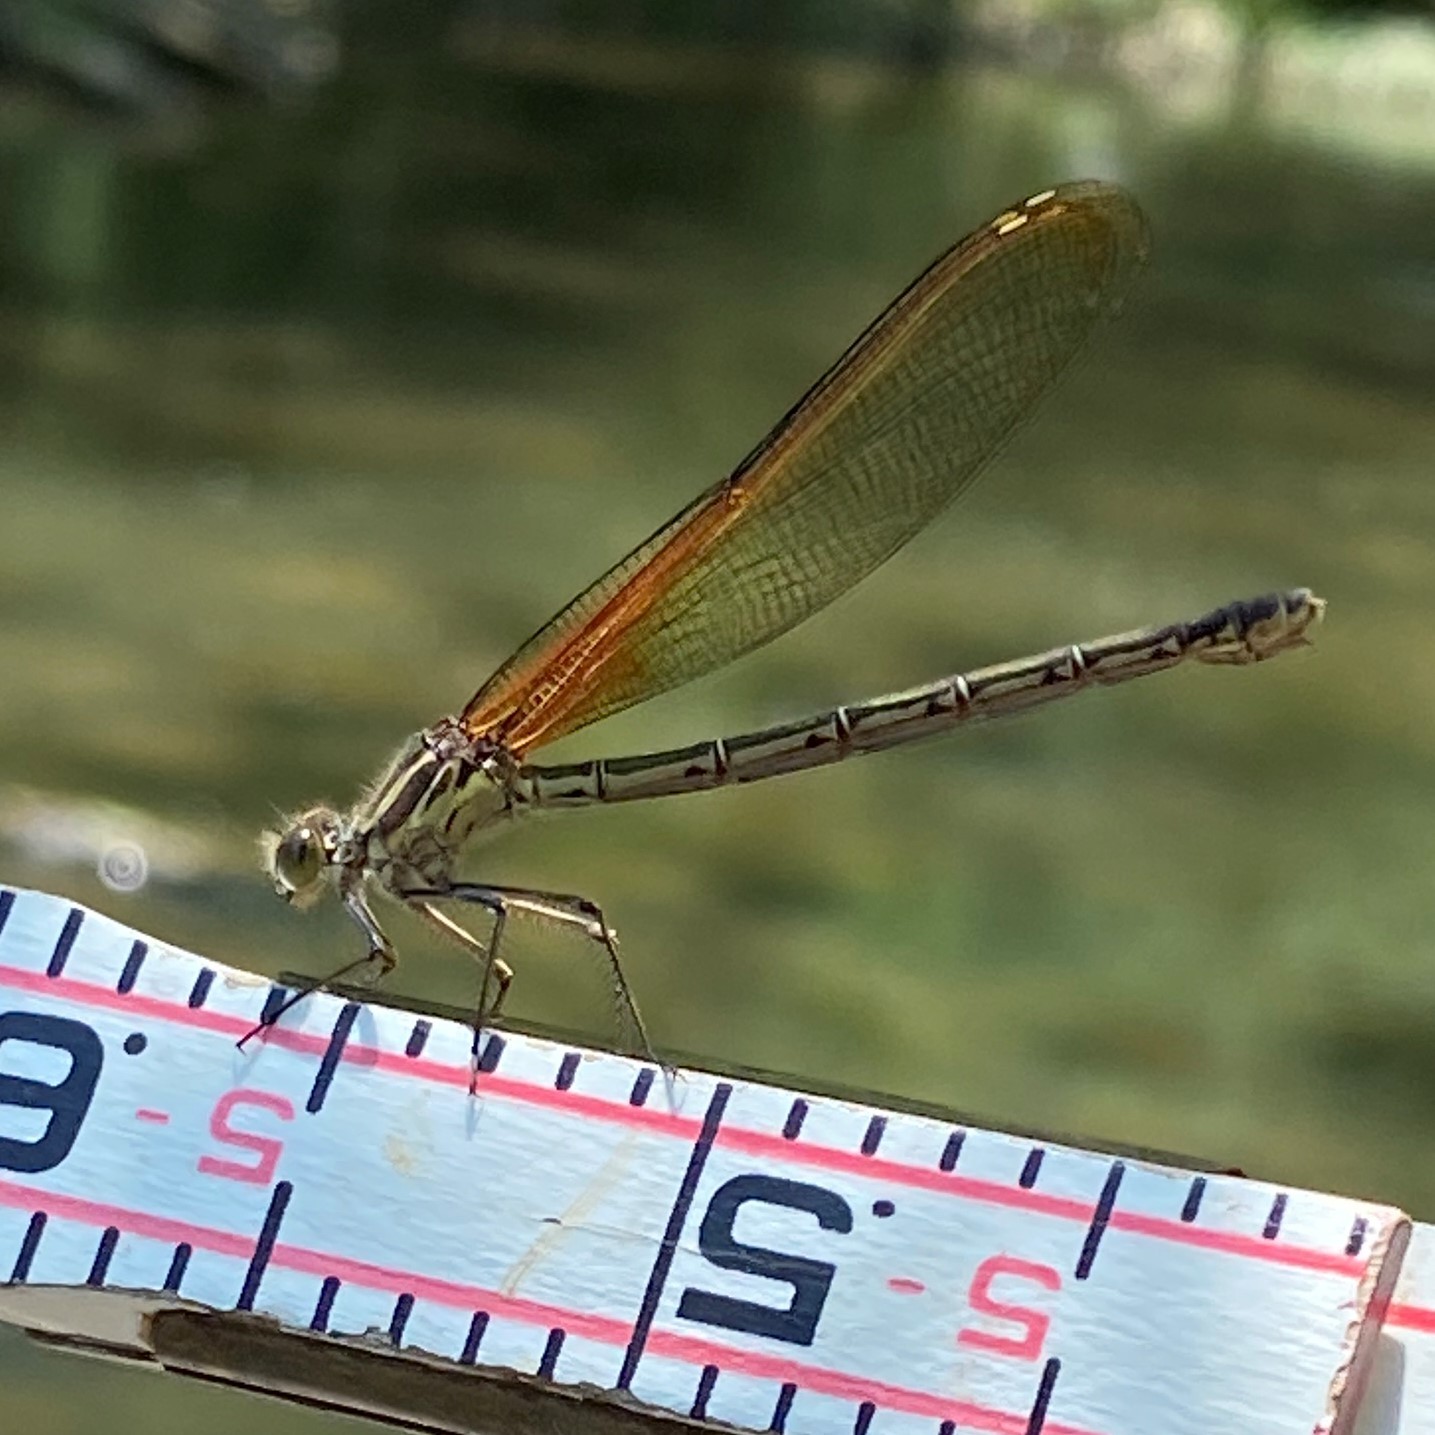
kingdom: Animalia
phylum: Arthropoda
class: Insecta
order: Odonata
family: Calopterygidae
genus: Hetaerina
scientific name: Hetaerina americana
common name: American rubyspot
